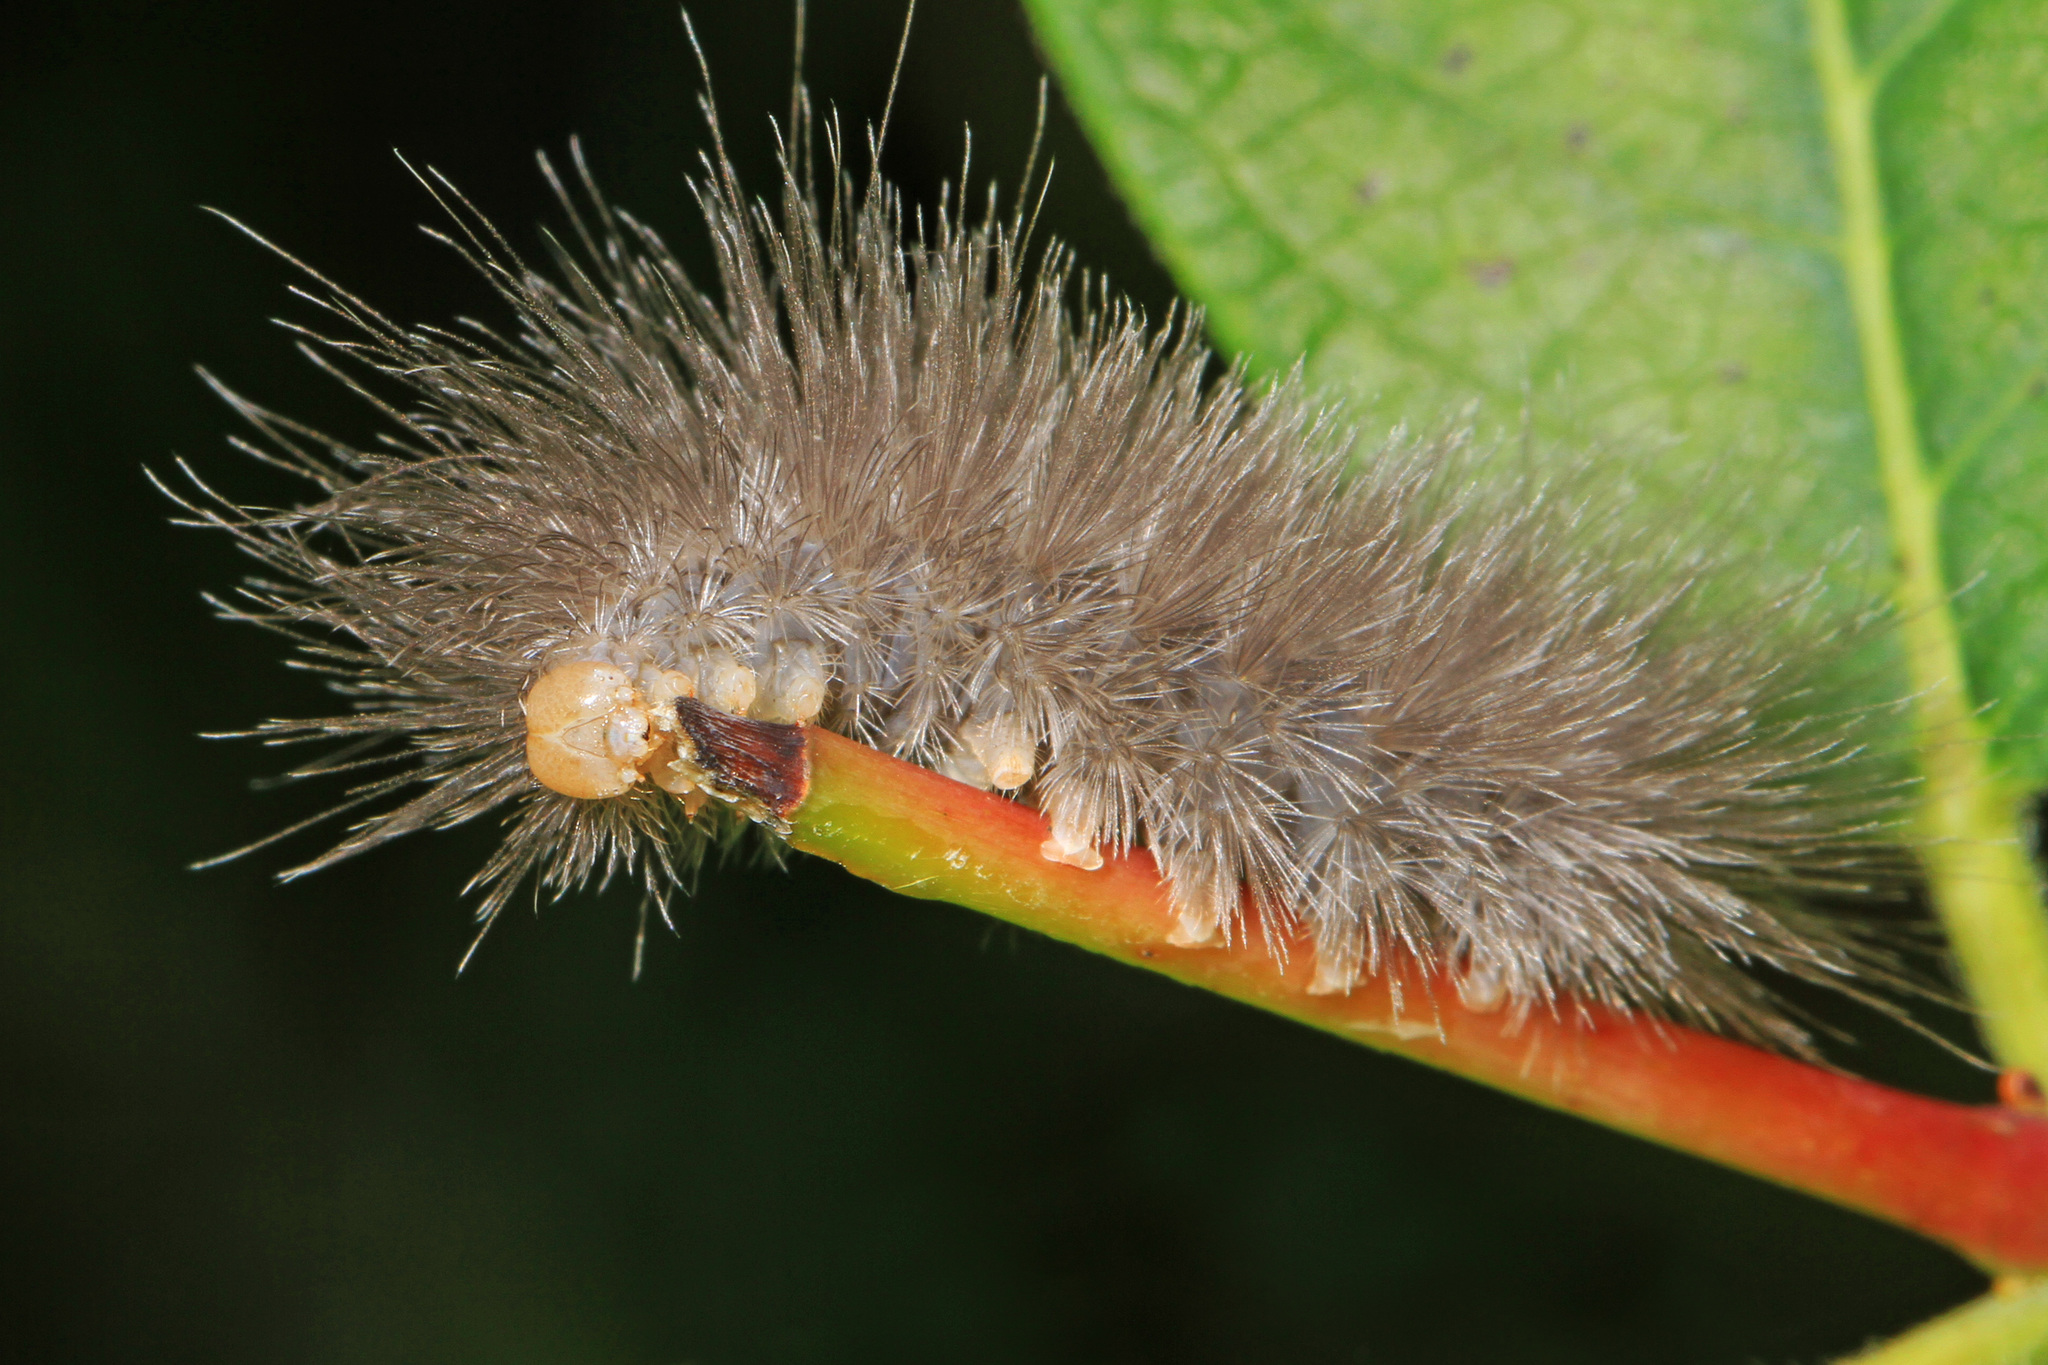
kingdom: Animalia
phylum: Arthropoda
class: Insecta
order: Lepidoptera
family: Erebidae
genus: Cycnia
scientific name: Cycnia tenera
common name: Delicate cycnia moth
